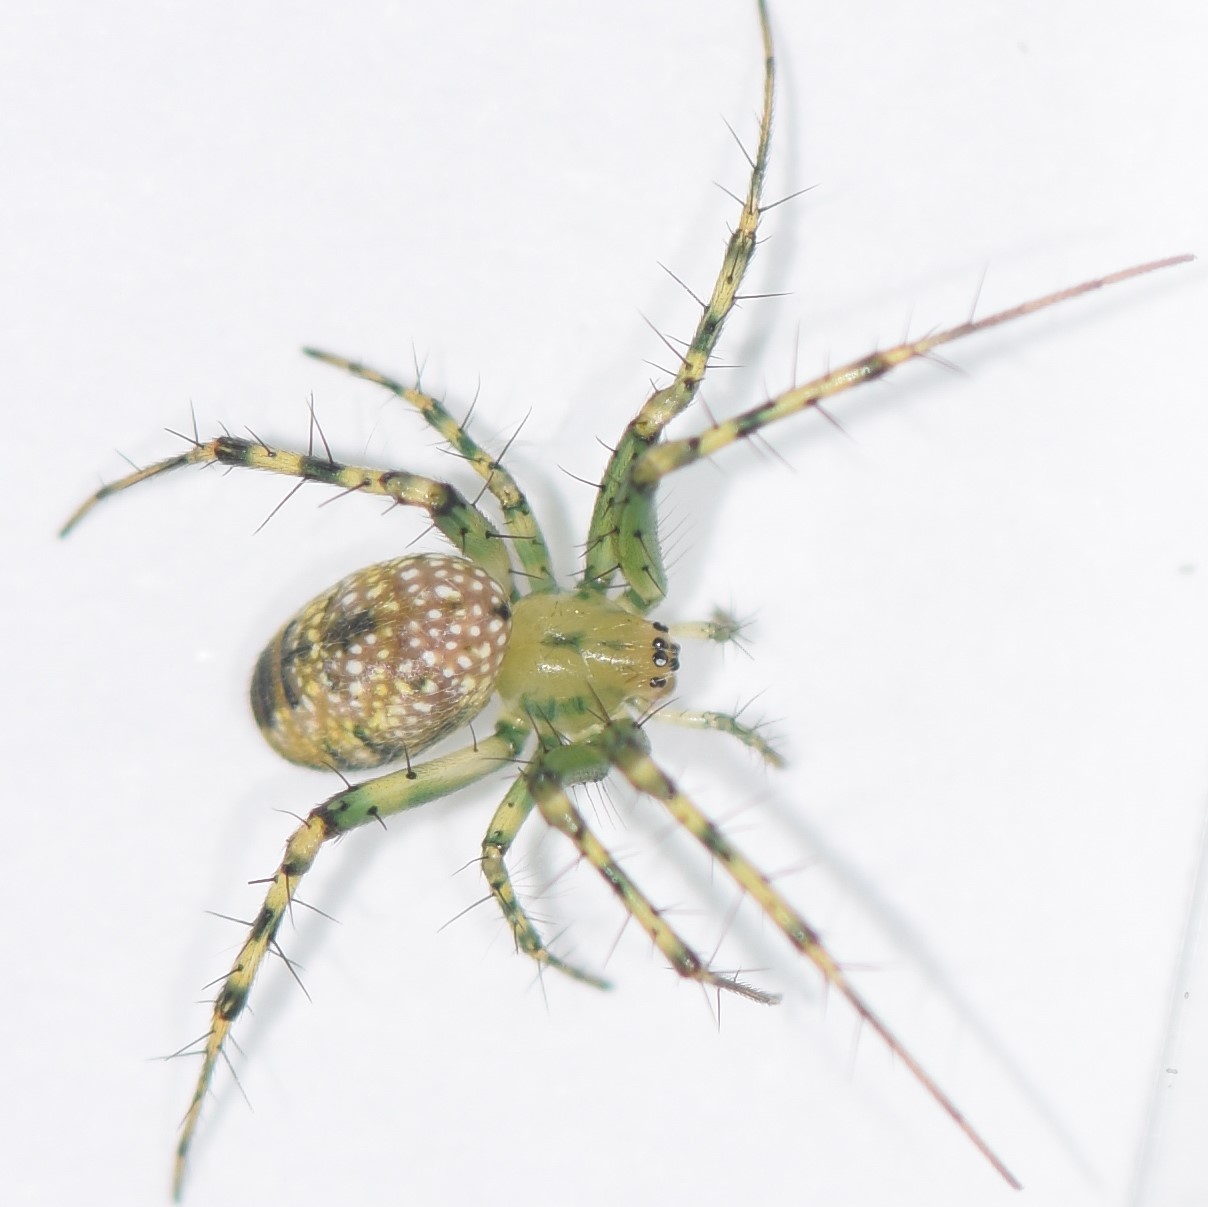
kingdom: Animalia
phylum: Arthropoda
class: Arachnida
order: Araneae
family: Araneidae
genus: Mangora
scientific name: Mangora maculata
